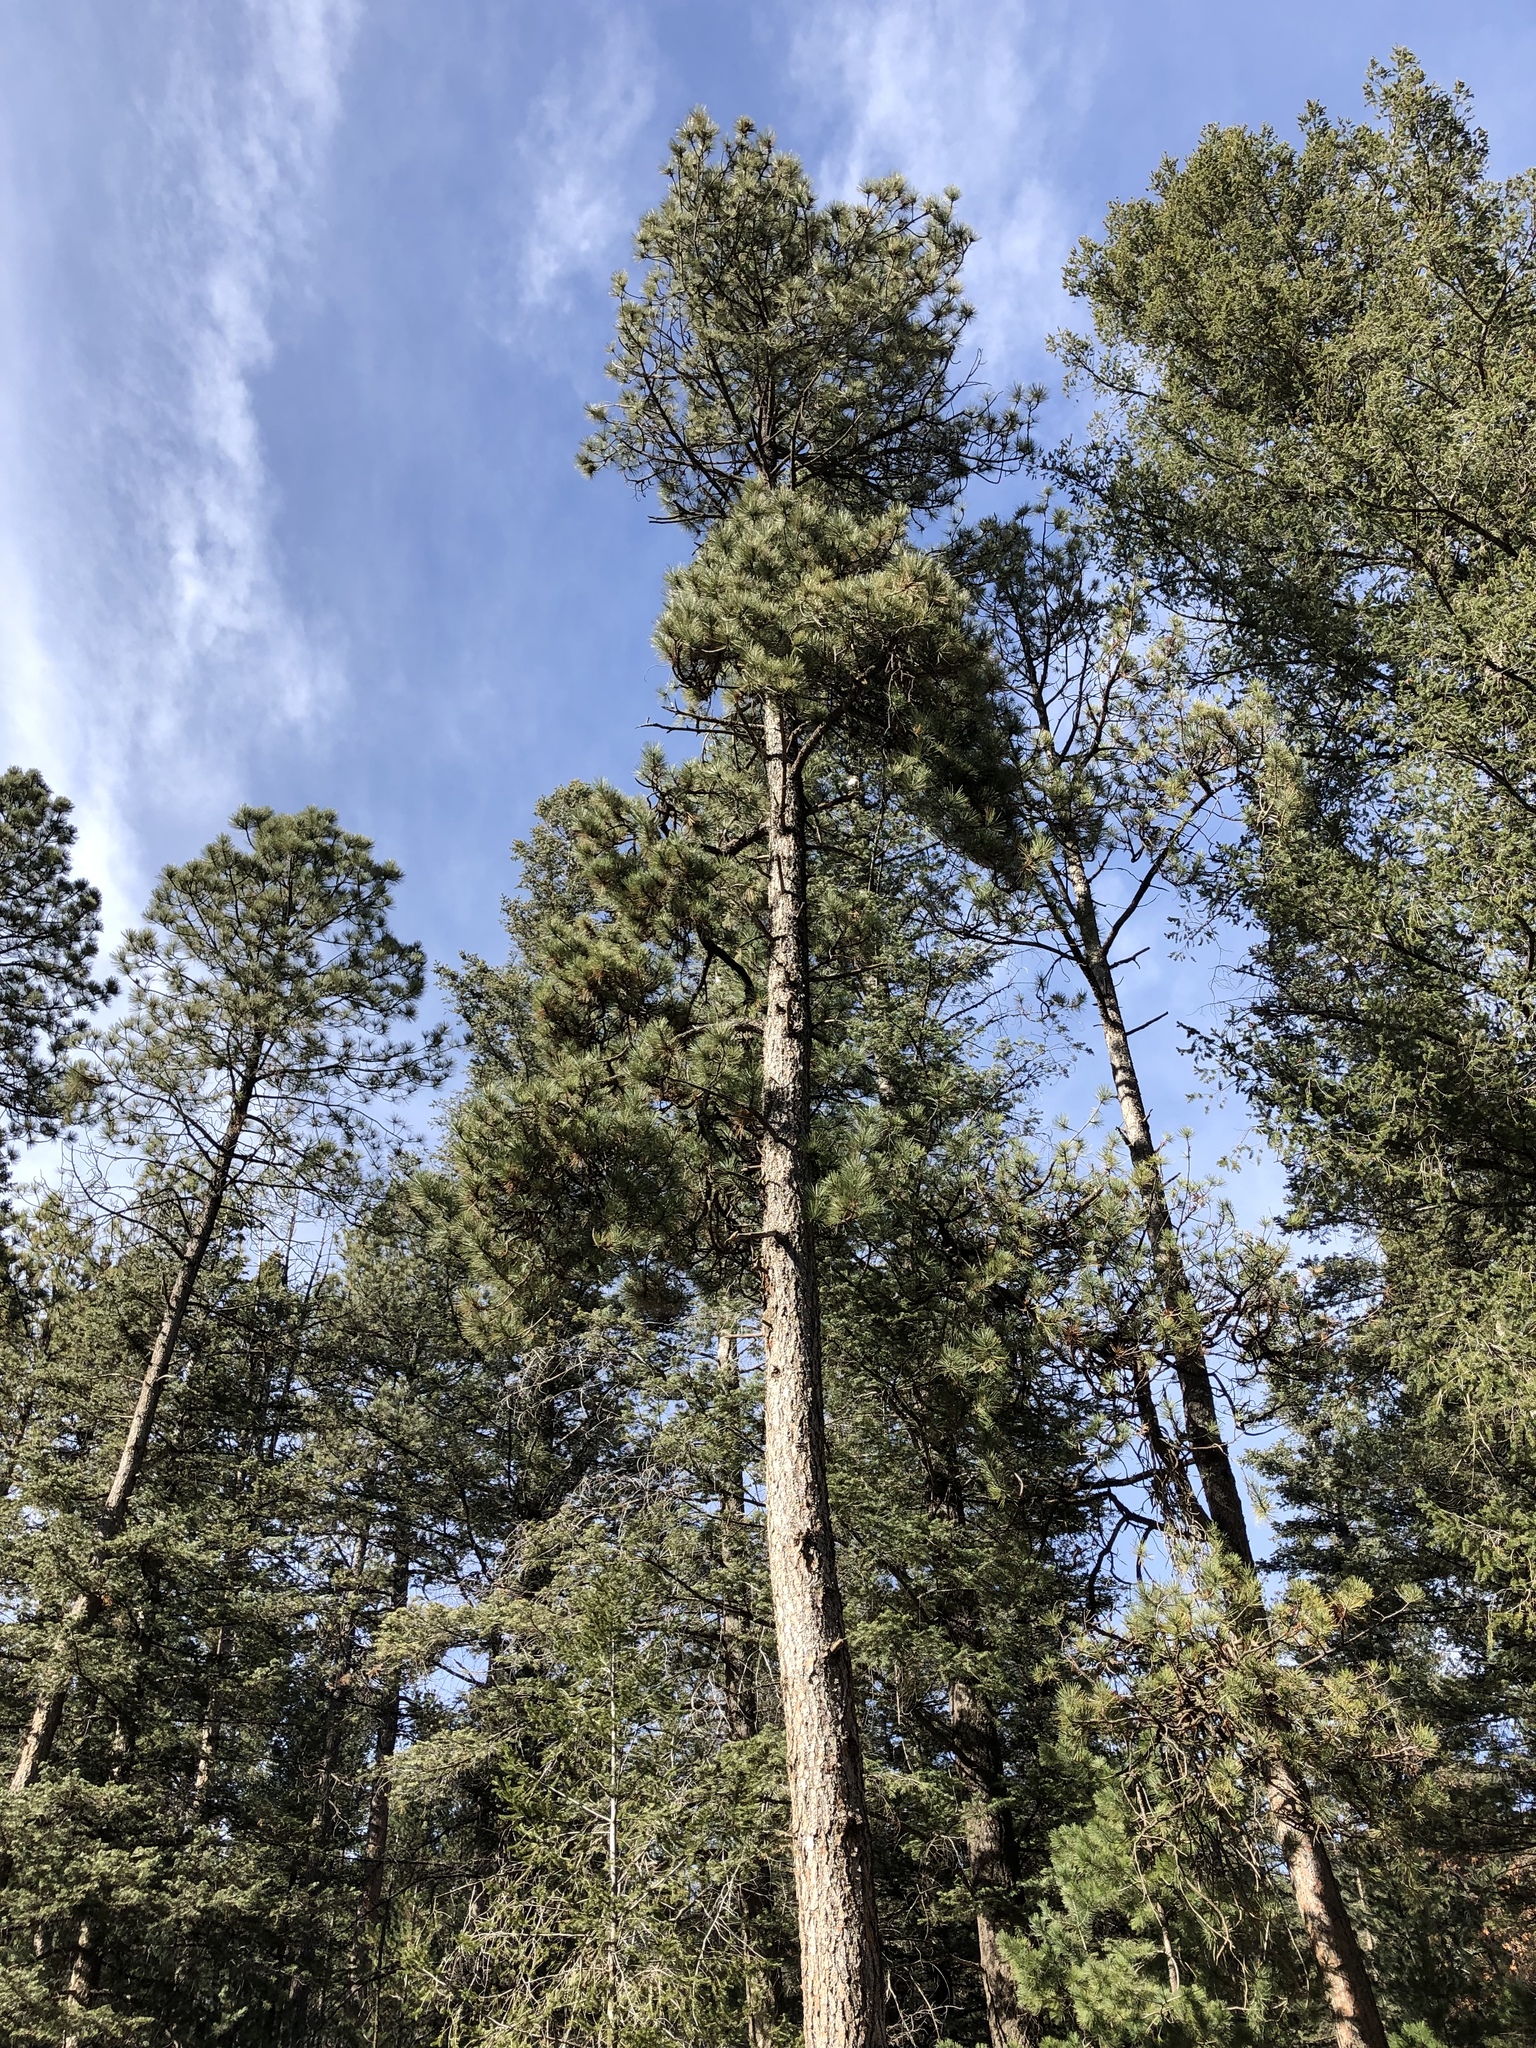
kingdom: Plantae
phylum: Tracheophyta
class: Pinopsida
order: Pinales
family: Pinaceae
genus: Pinus
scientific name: Pinus ponderosa
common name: Western yellow-pine
